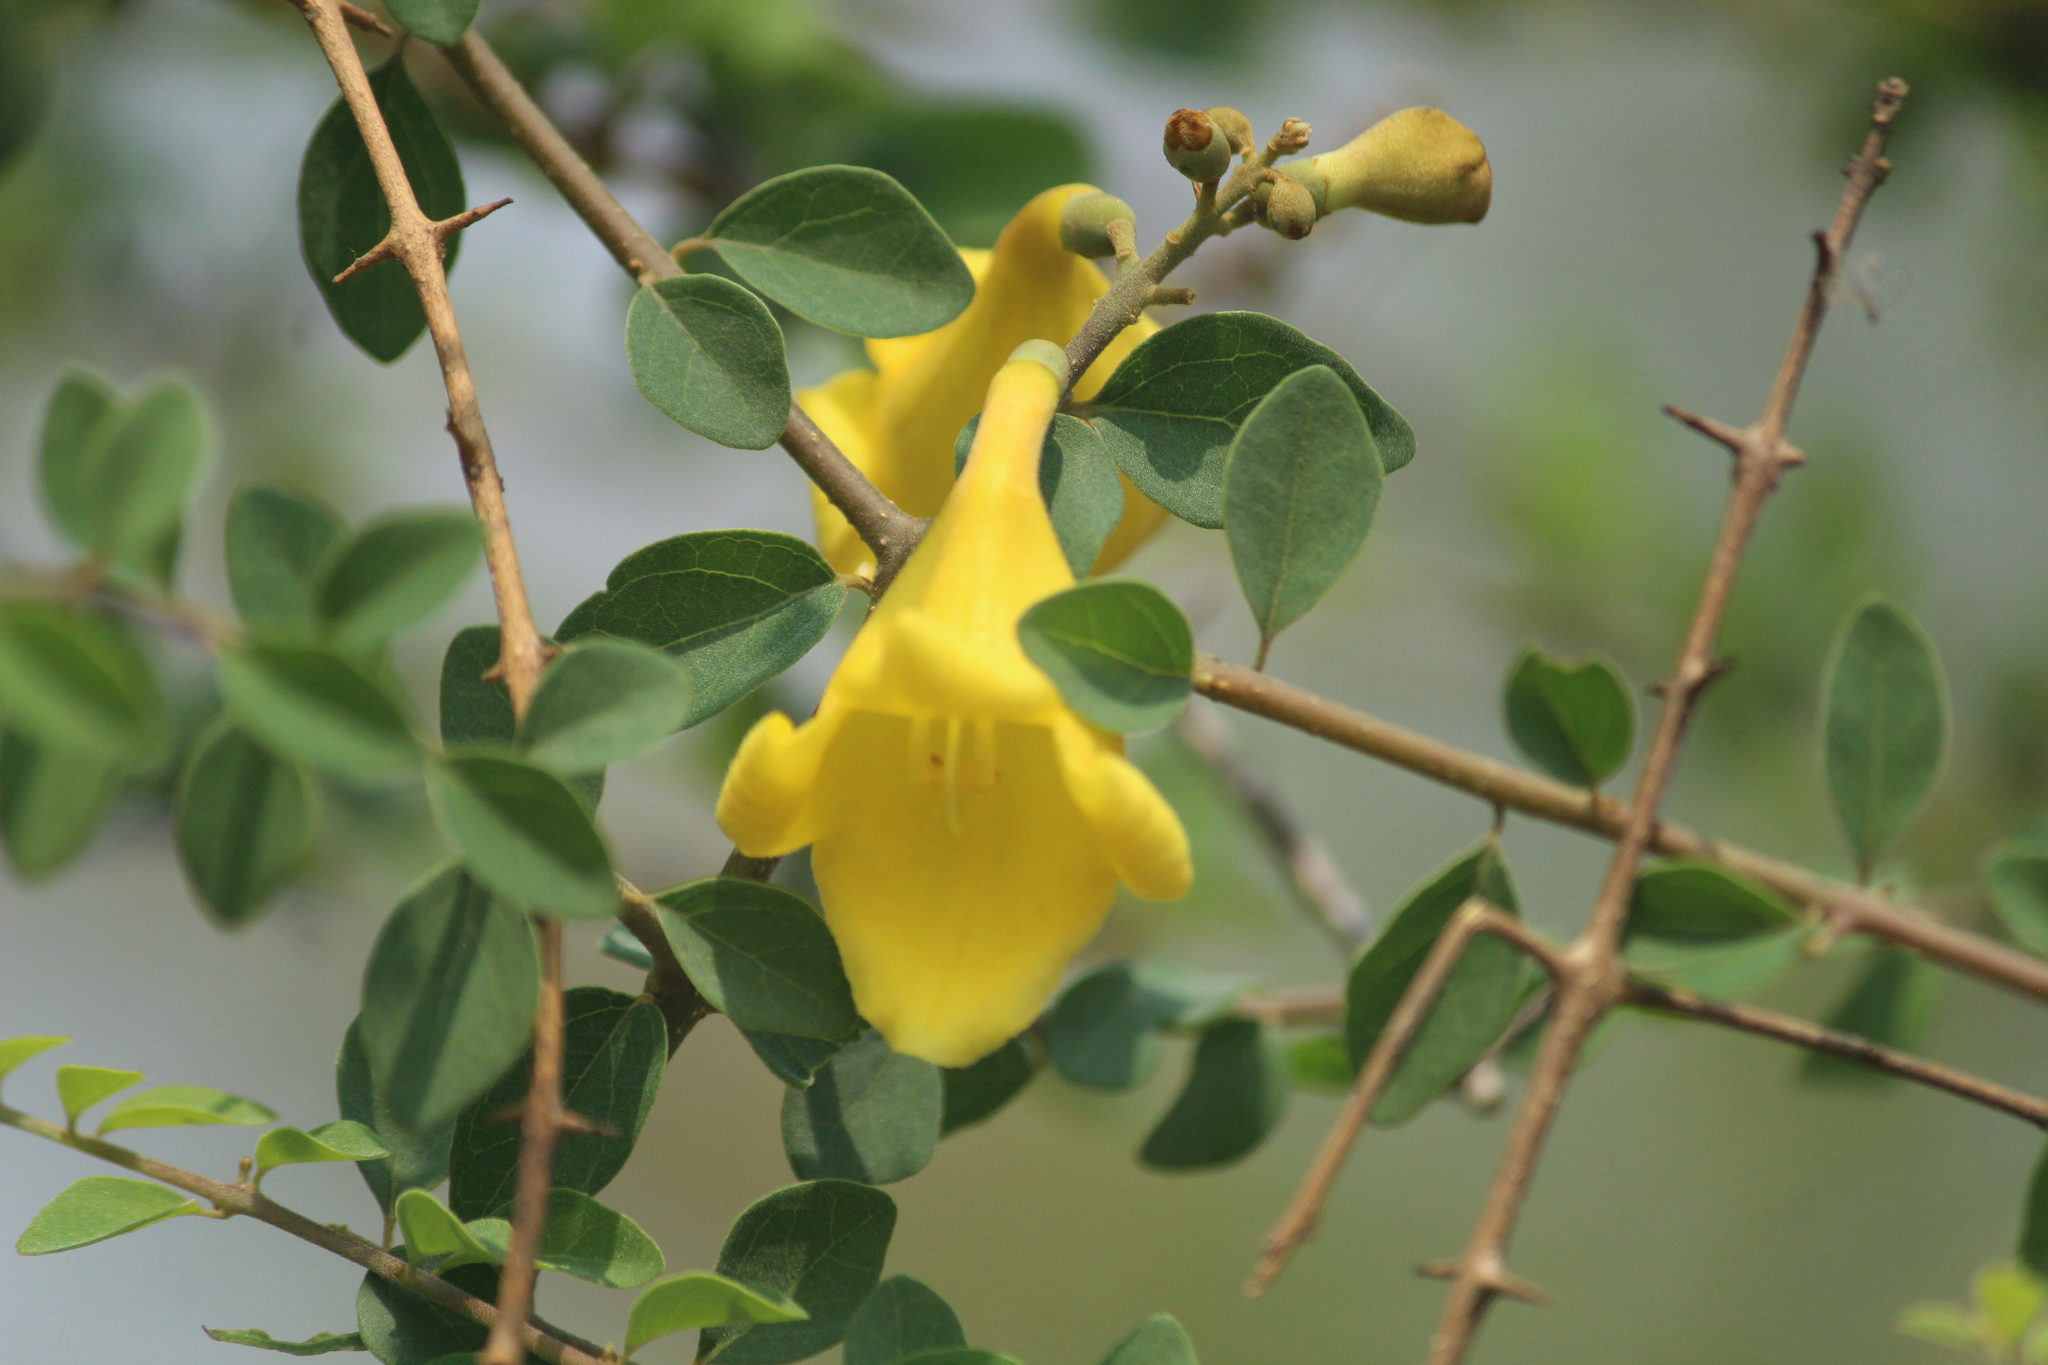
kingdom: Plantae
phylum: Tracheophyta
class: Magnoliopsida
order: Lamiales
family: Lamiaceae
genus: Gmelina
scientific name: Gmelina asiatica
